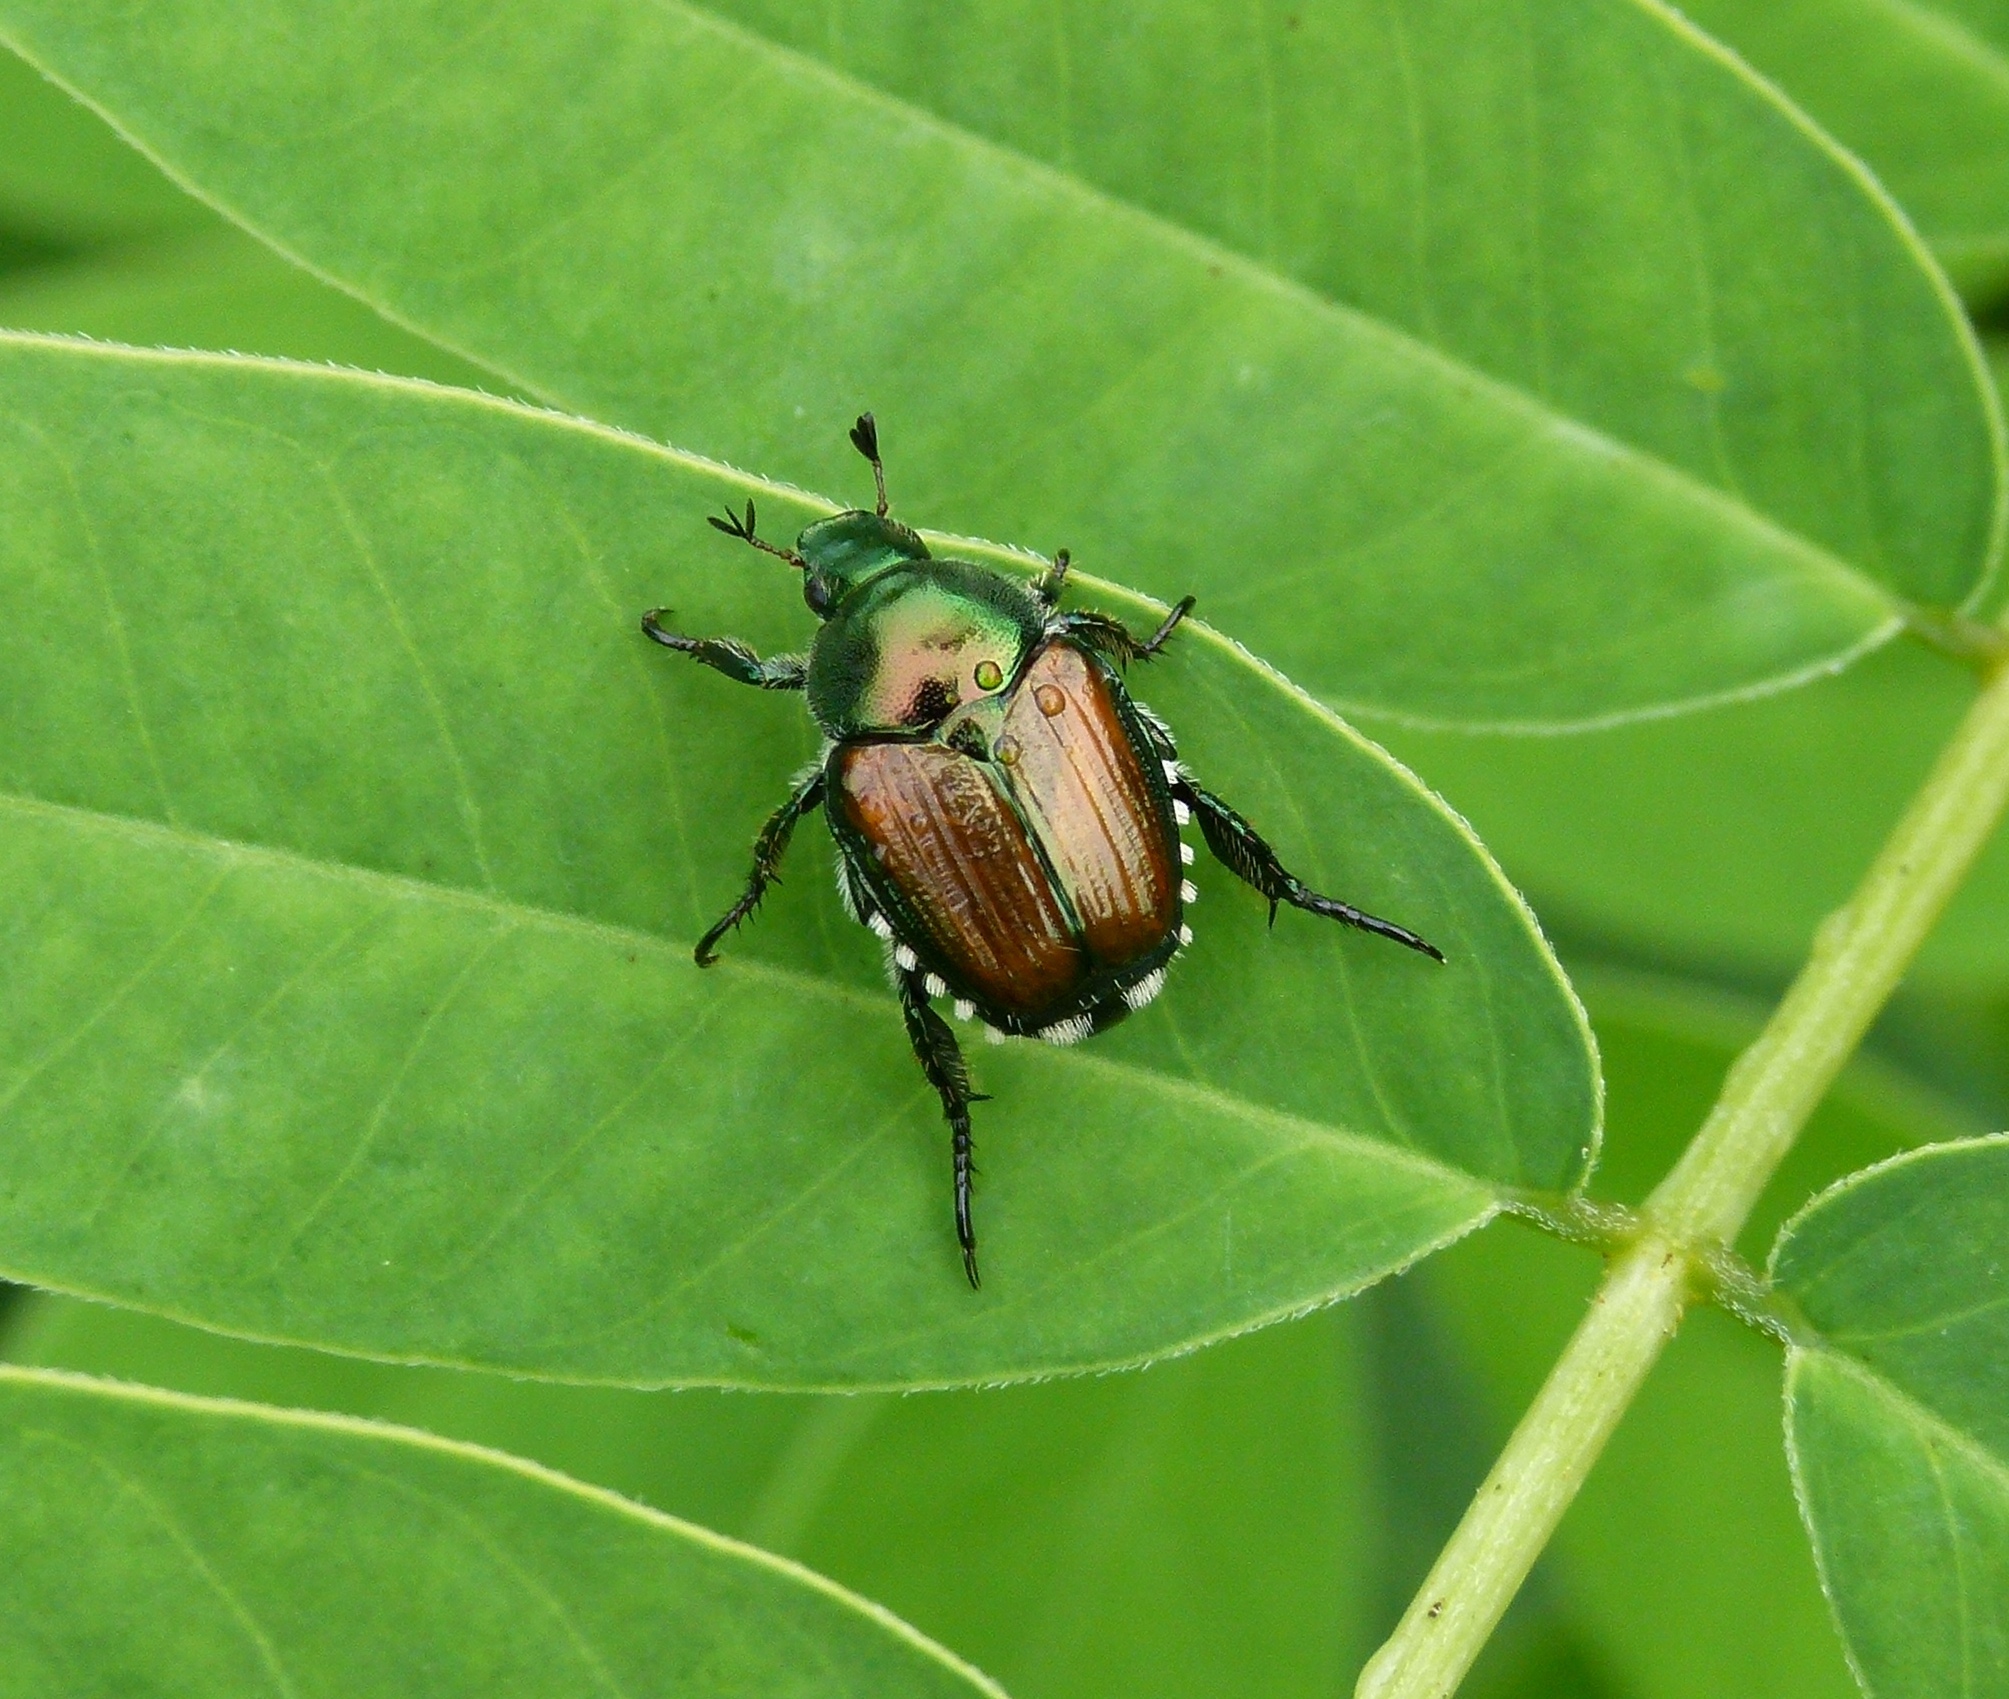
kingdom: Animalia
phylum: Arthropoda
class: Insecta
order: Coleoptera
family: Scarabaeidae
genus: Popillia
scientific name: Popillia japonica
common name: Japanese beetle
